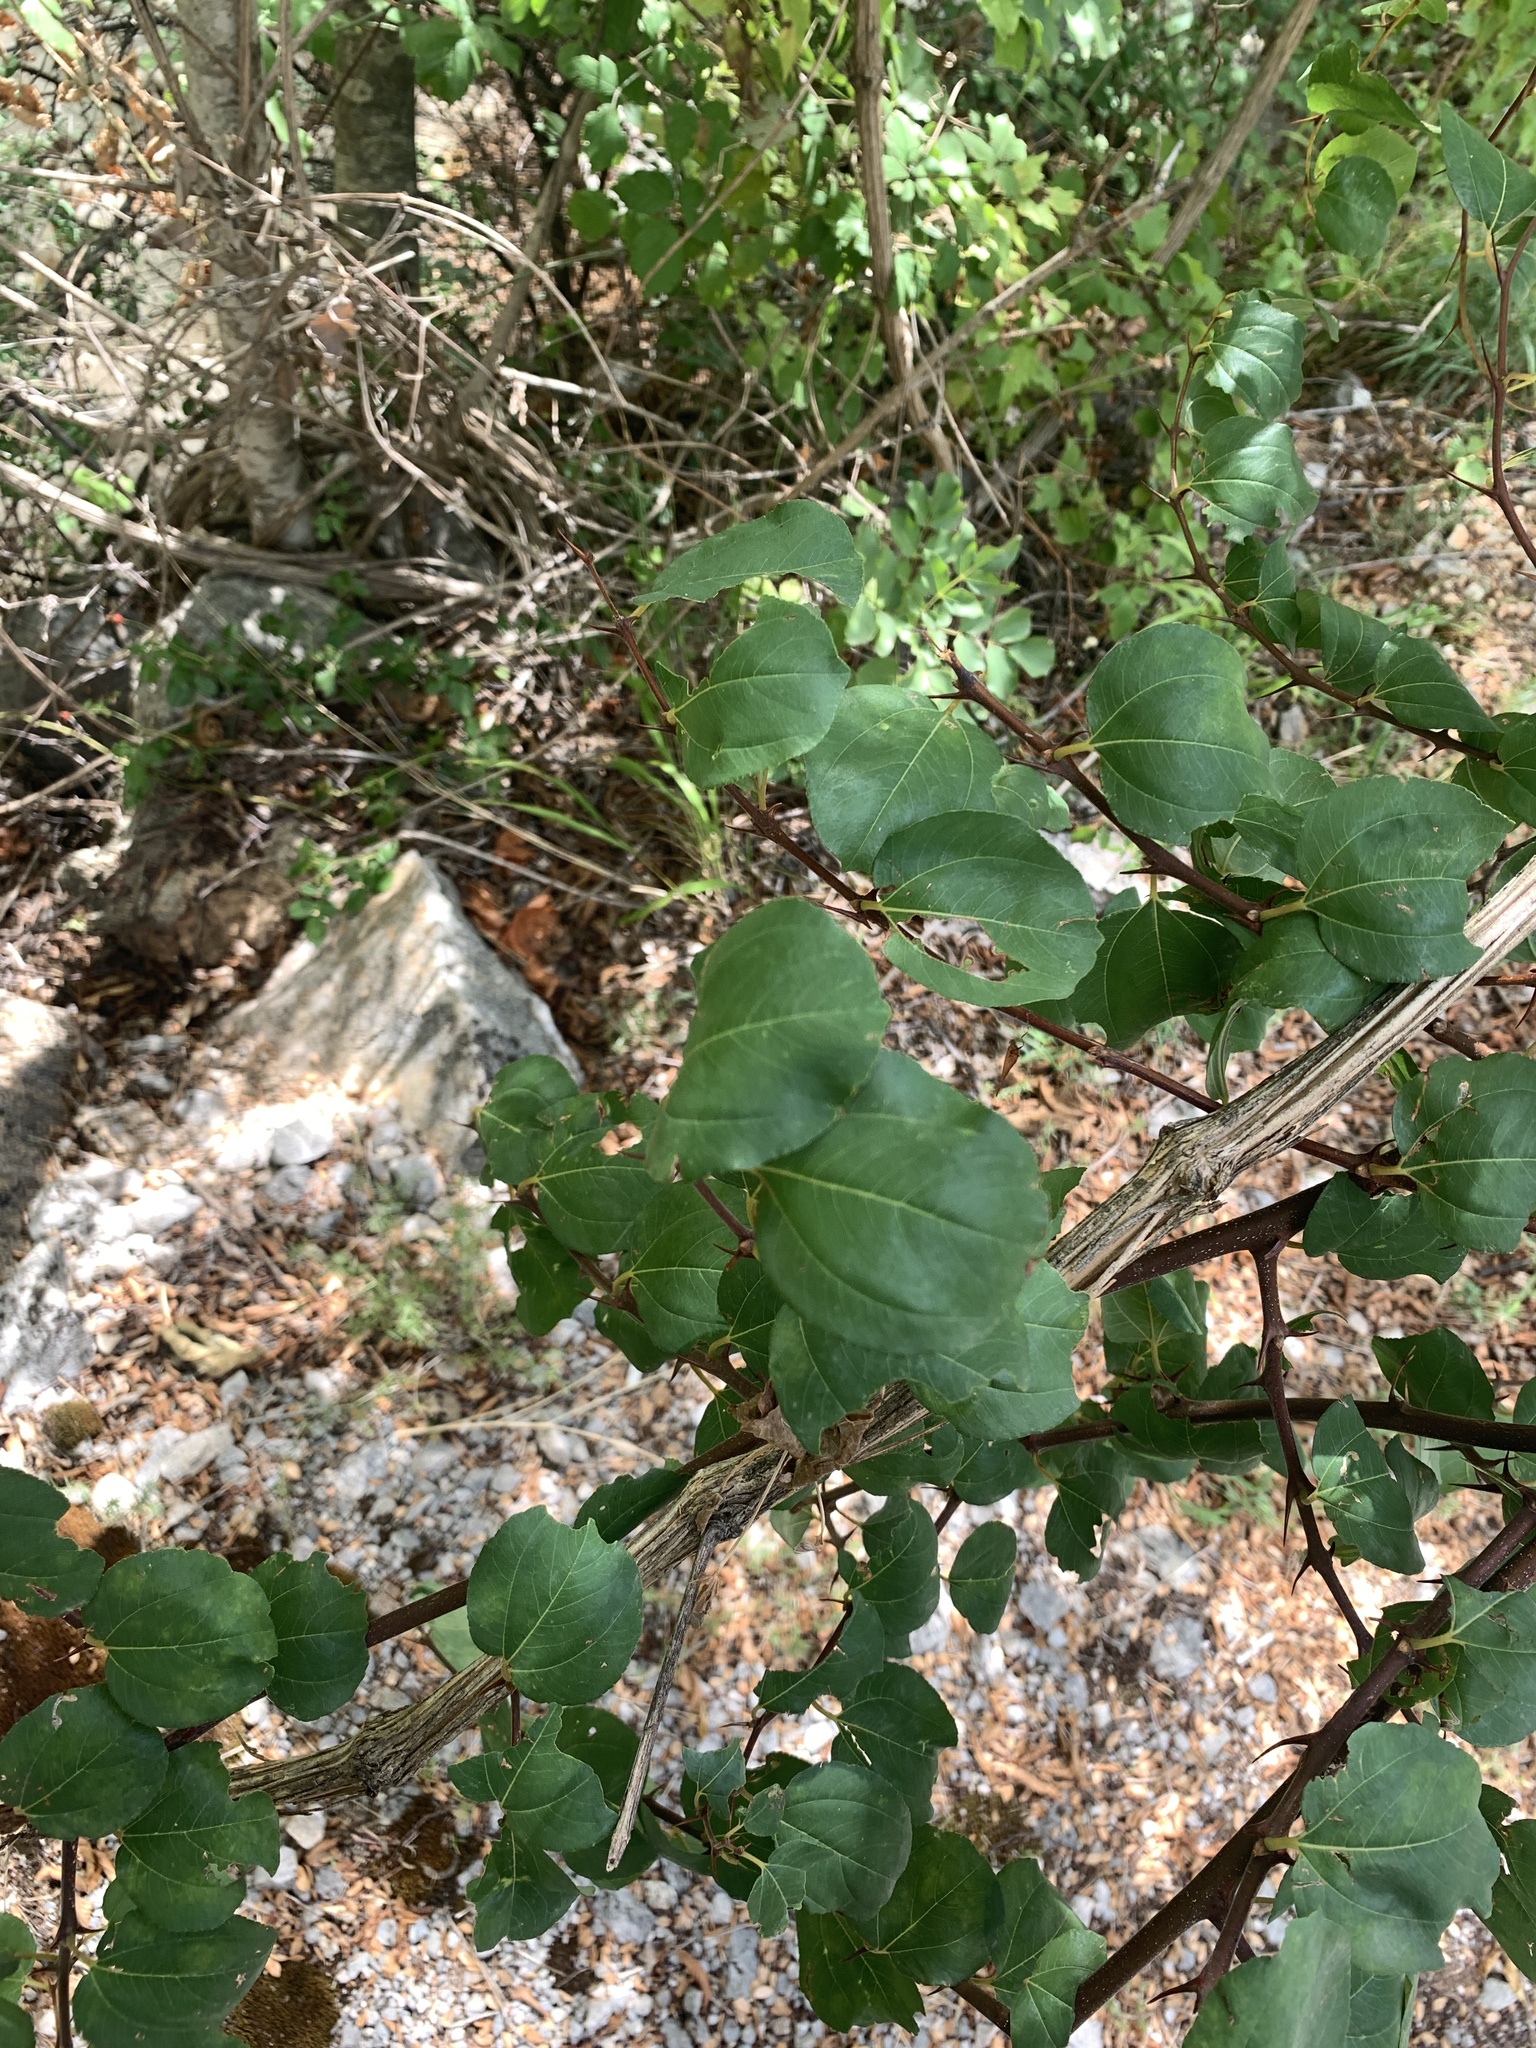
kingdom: Plantae
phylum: Tracheophyta
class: Magnoliopsida
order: Rosales
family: Rhamnaceae
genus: Paliurus
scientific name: Paliurus spina-christi
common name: Jeruselem thorn
